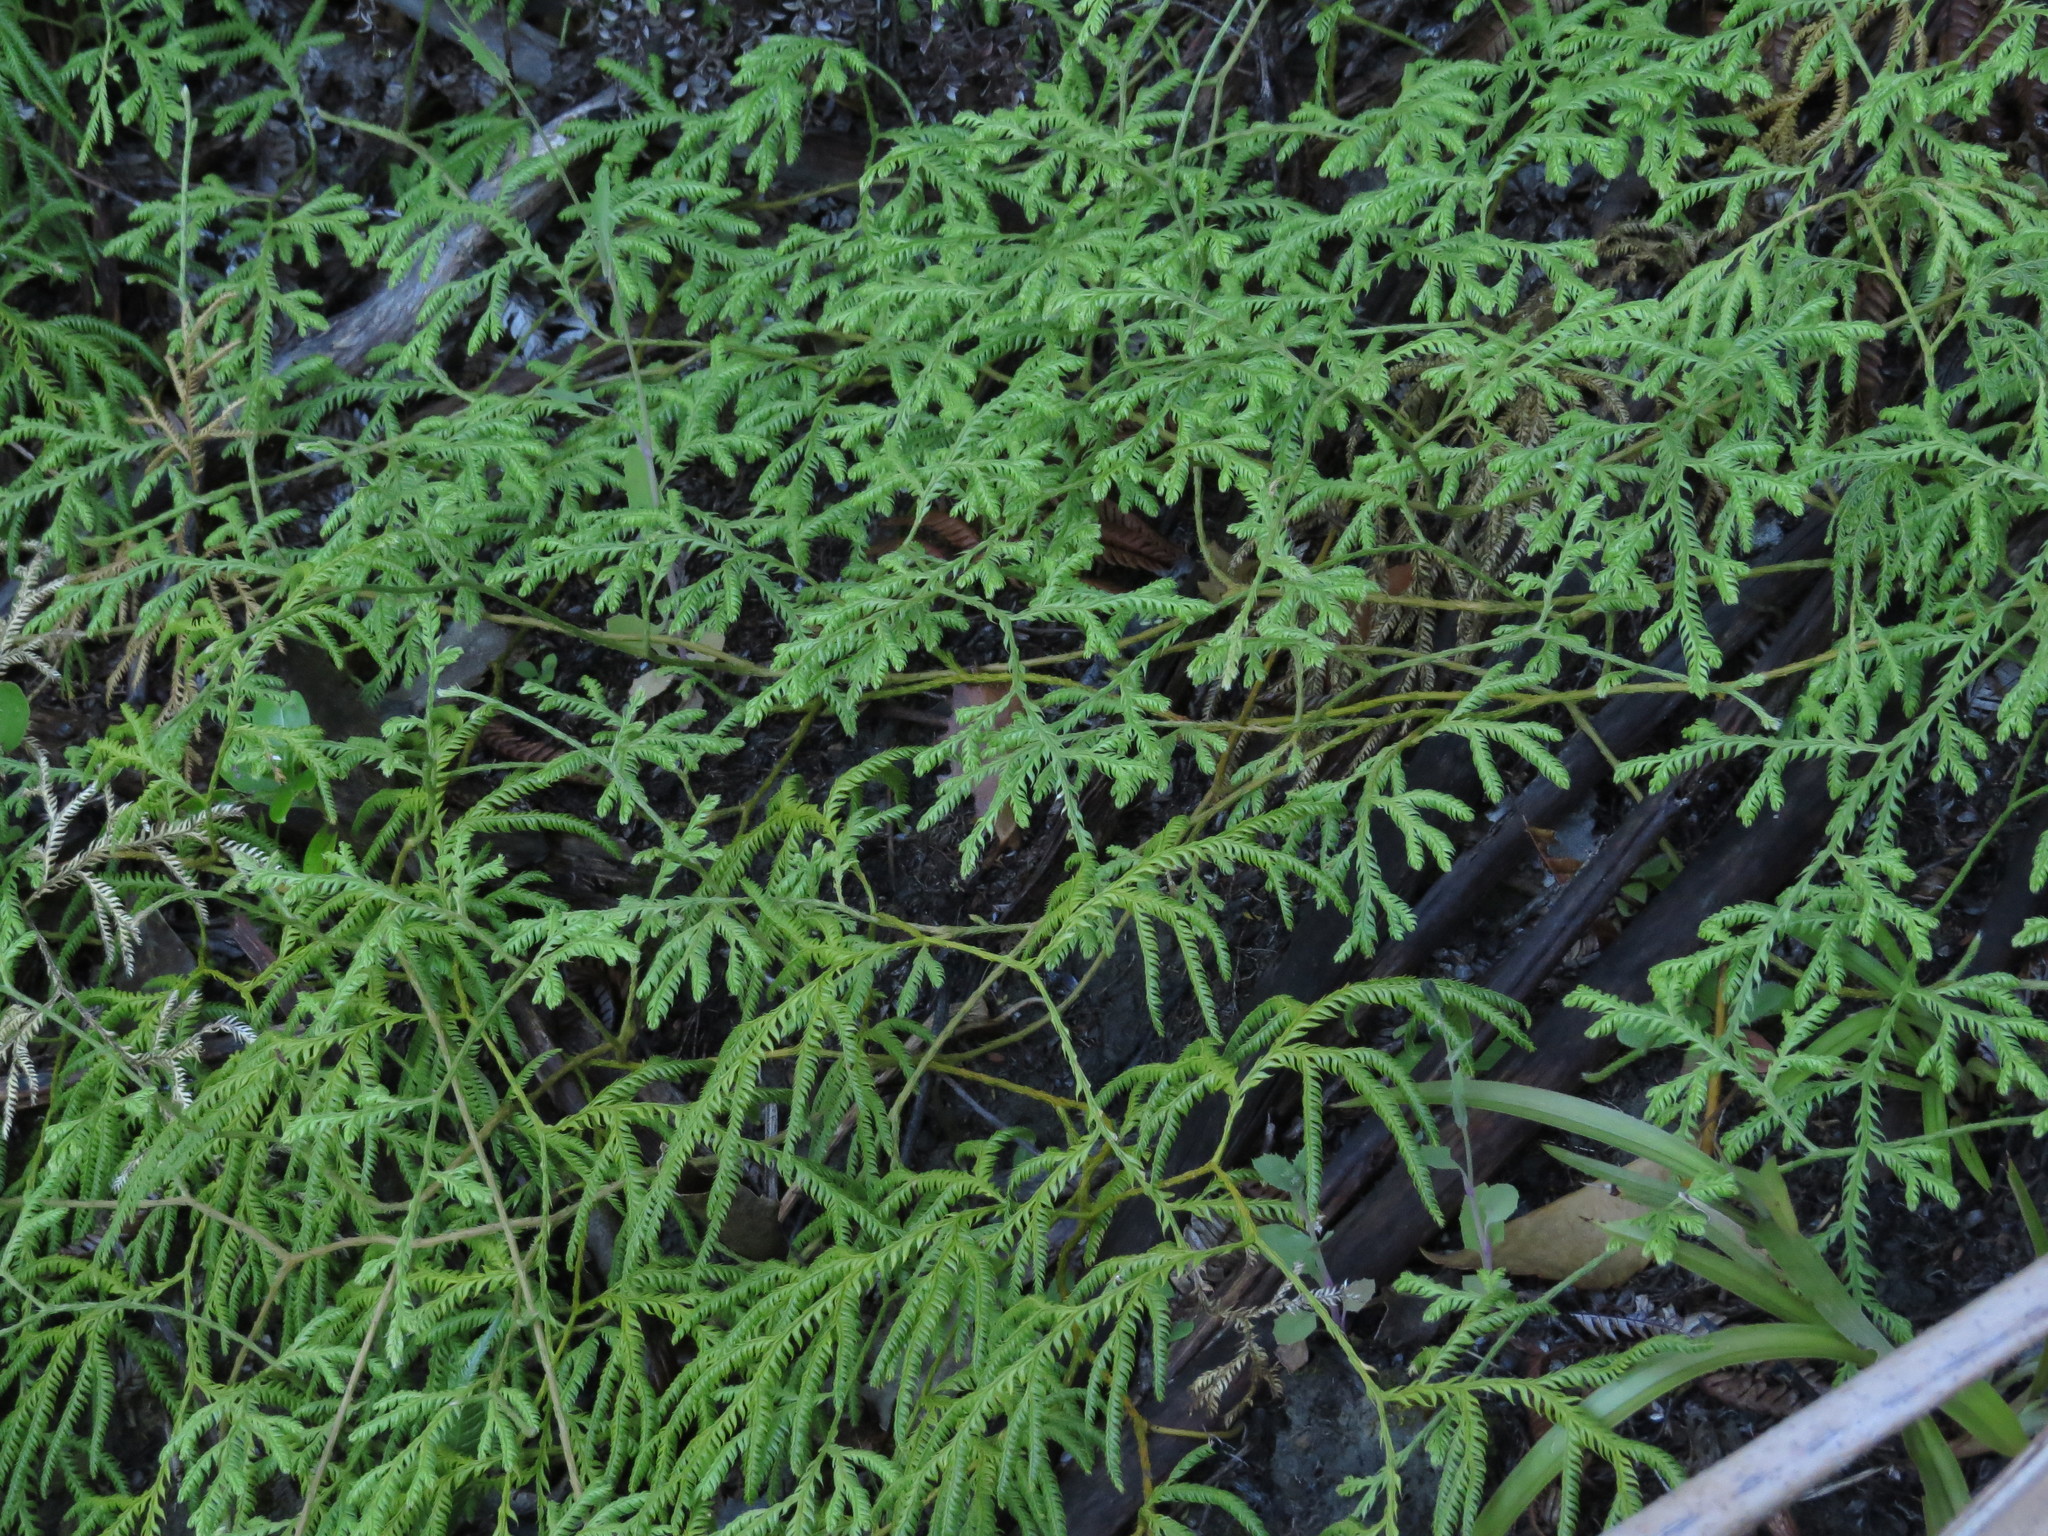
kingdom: Plantae
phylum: Tracheophyta
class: Lycopodiopsida
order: Lycopodiales
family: Lycopodiaceae
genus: Lycopodium
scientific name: Lycopodium volubile
